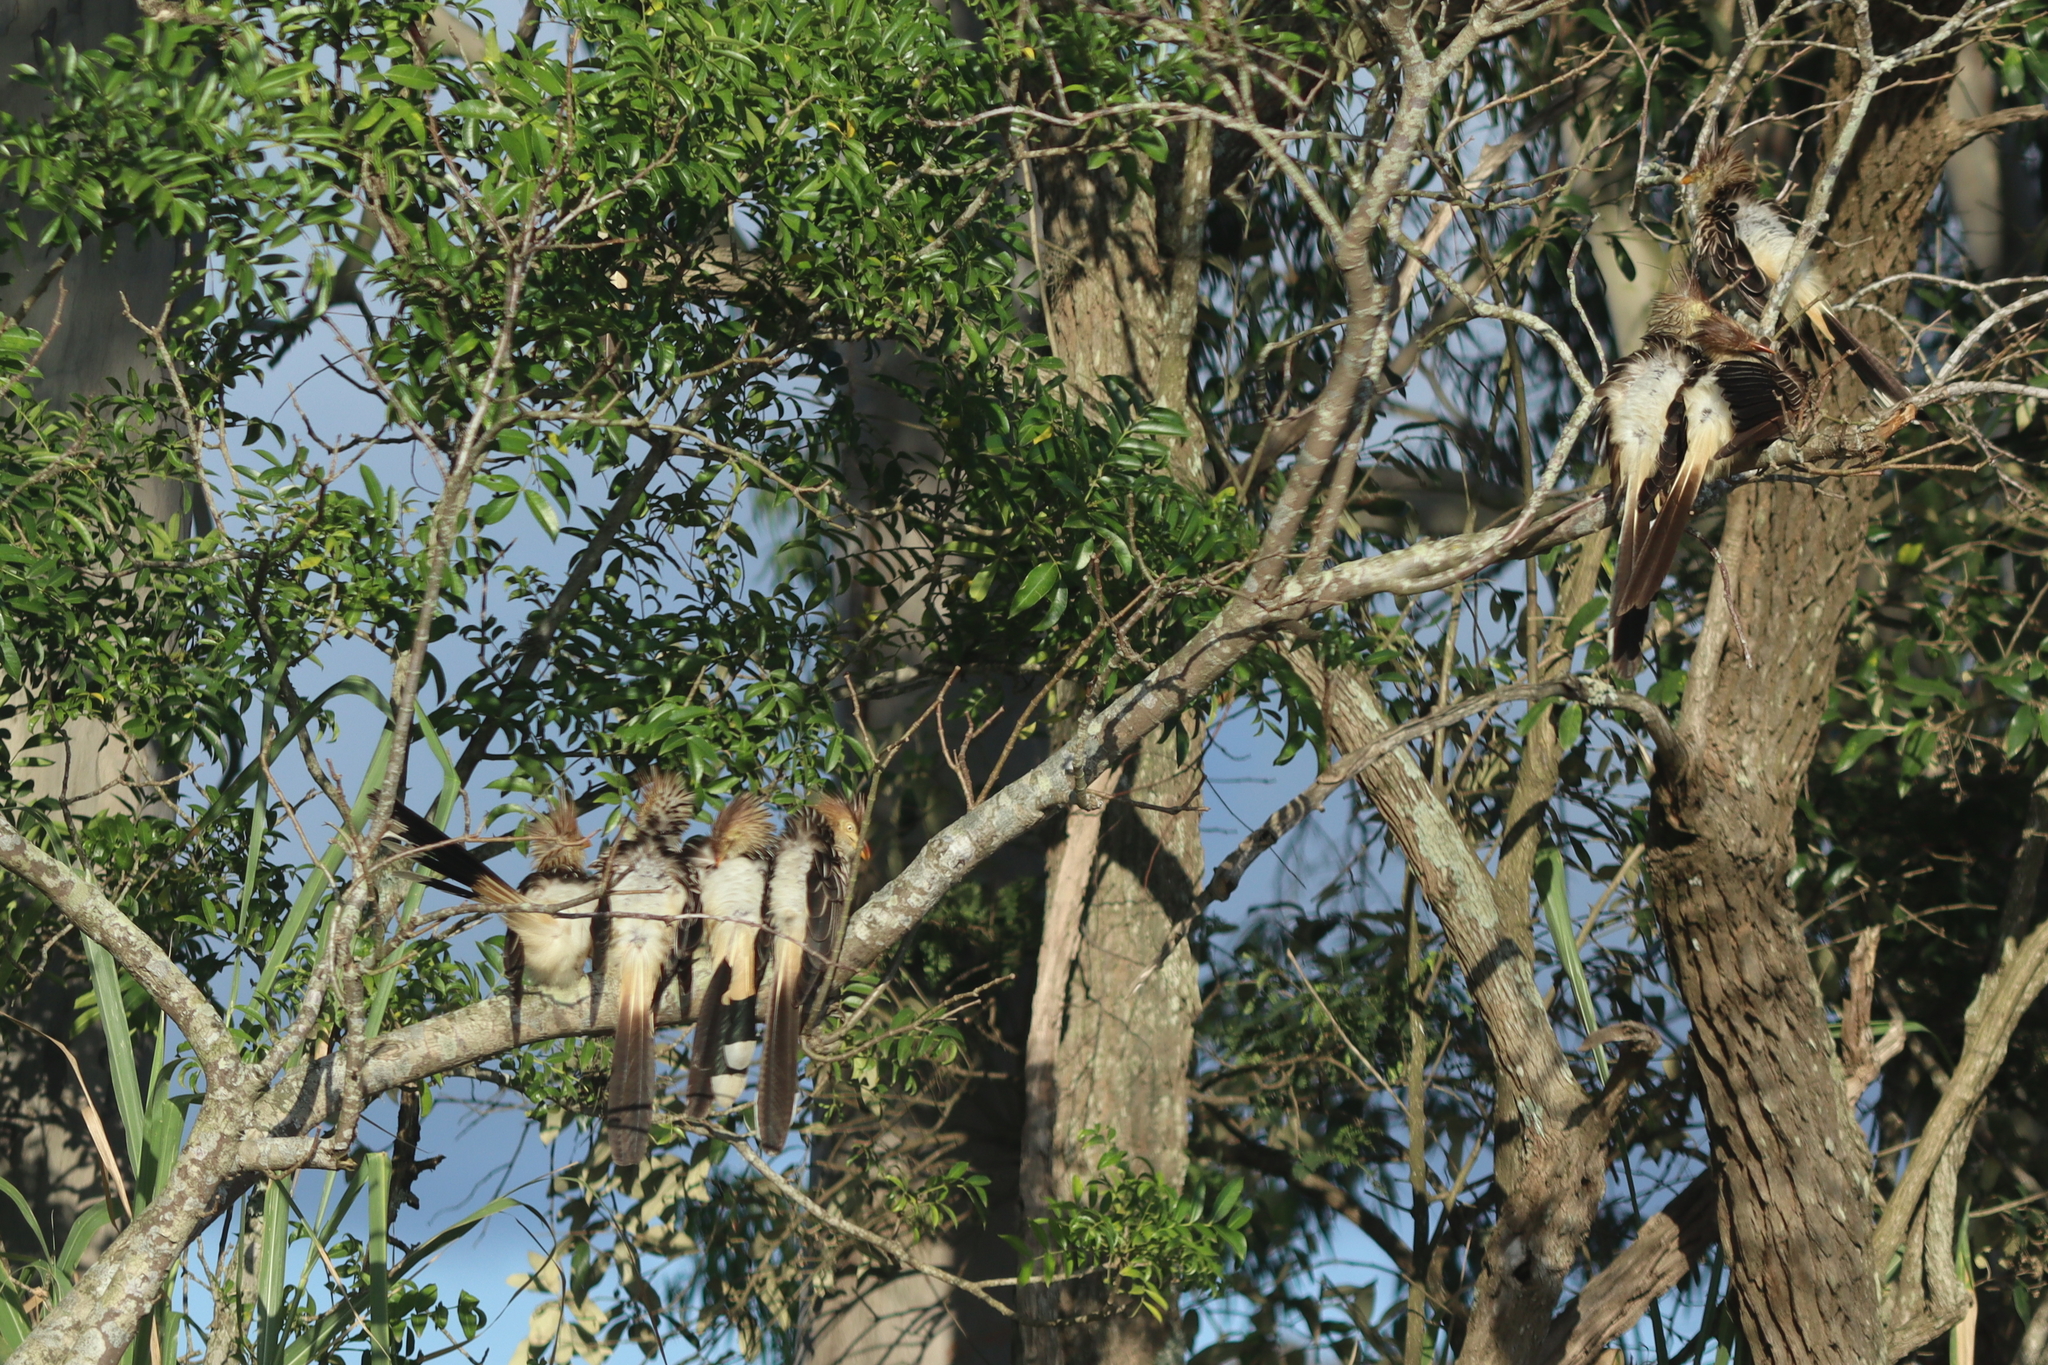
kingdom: Animalia
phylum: Chordata
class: Aves
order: Cuculiformes
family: Cuculidae
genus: Guira
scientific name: Guira guira
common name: Guira cuckoo
